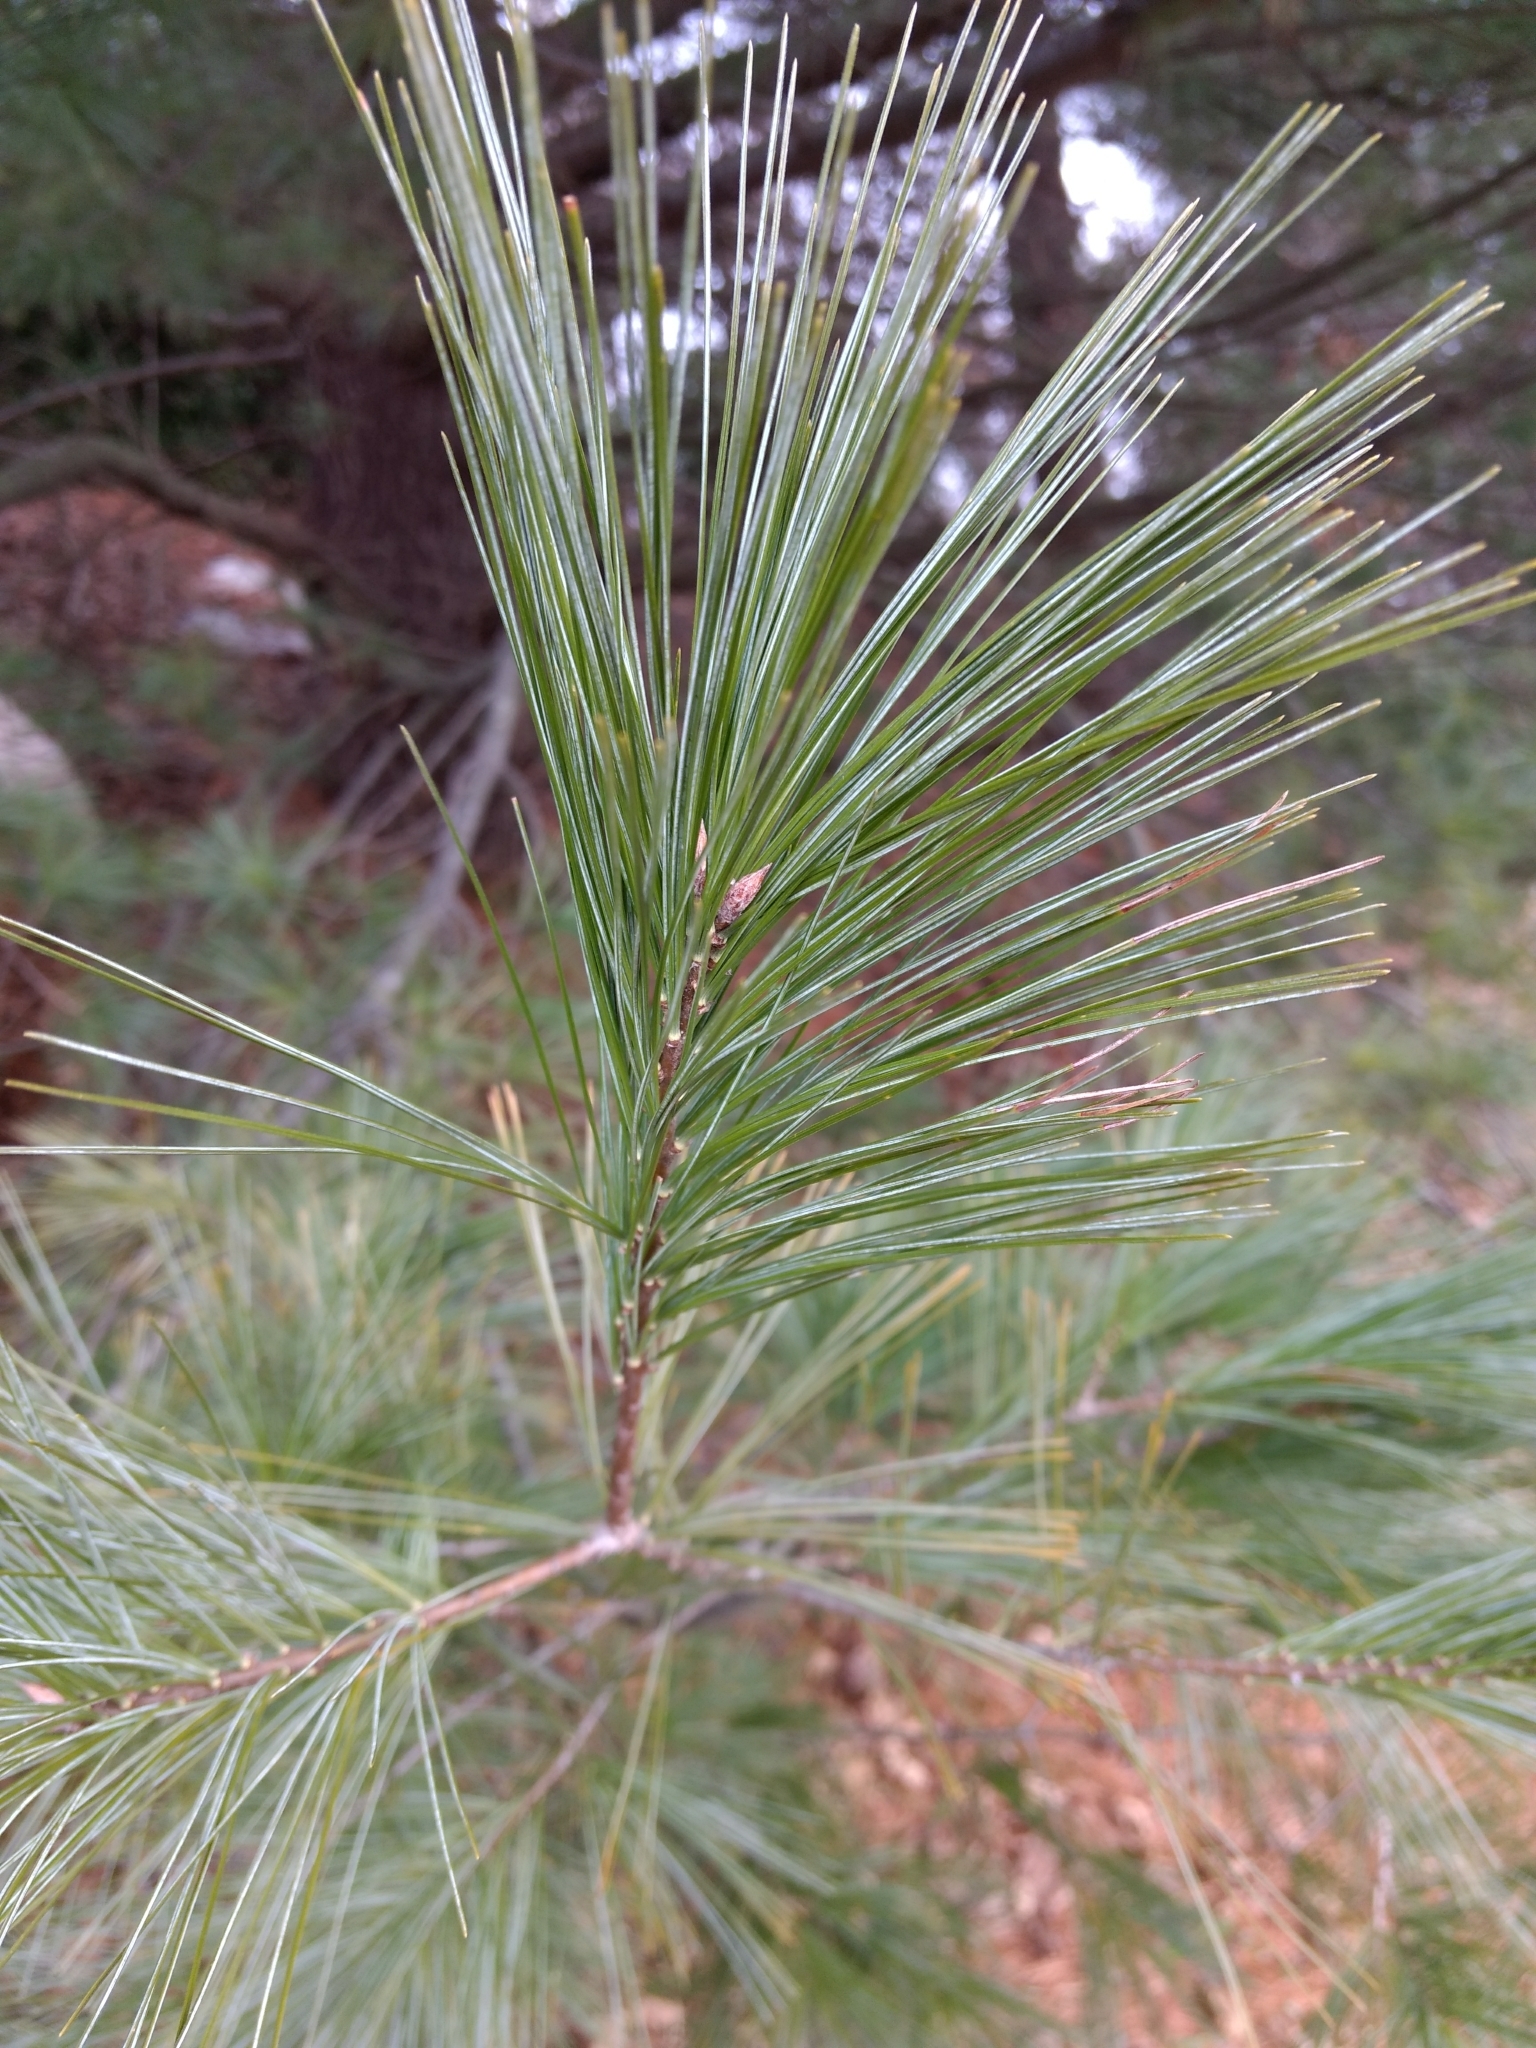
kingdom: Plantae
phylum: Tracheophyta
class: Pinopsida
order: Pinales
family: Pinaceae
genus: Pinus
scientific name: Pinus strobus
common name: Weymouth pine
